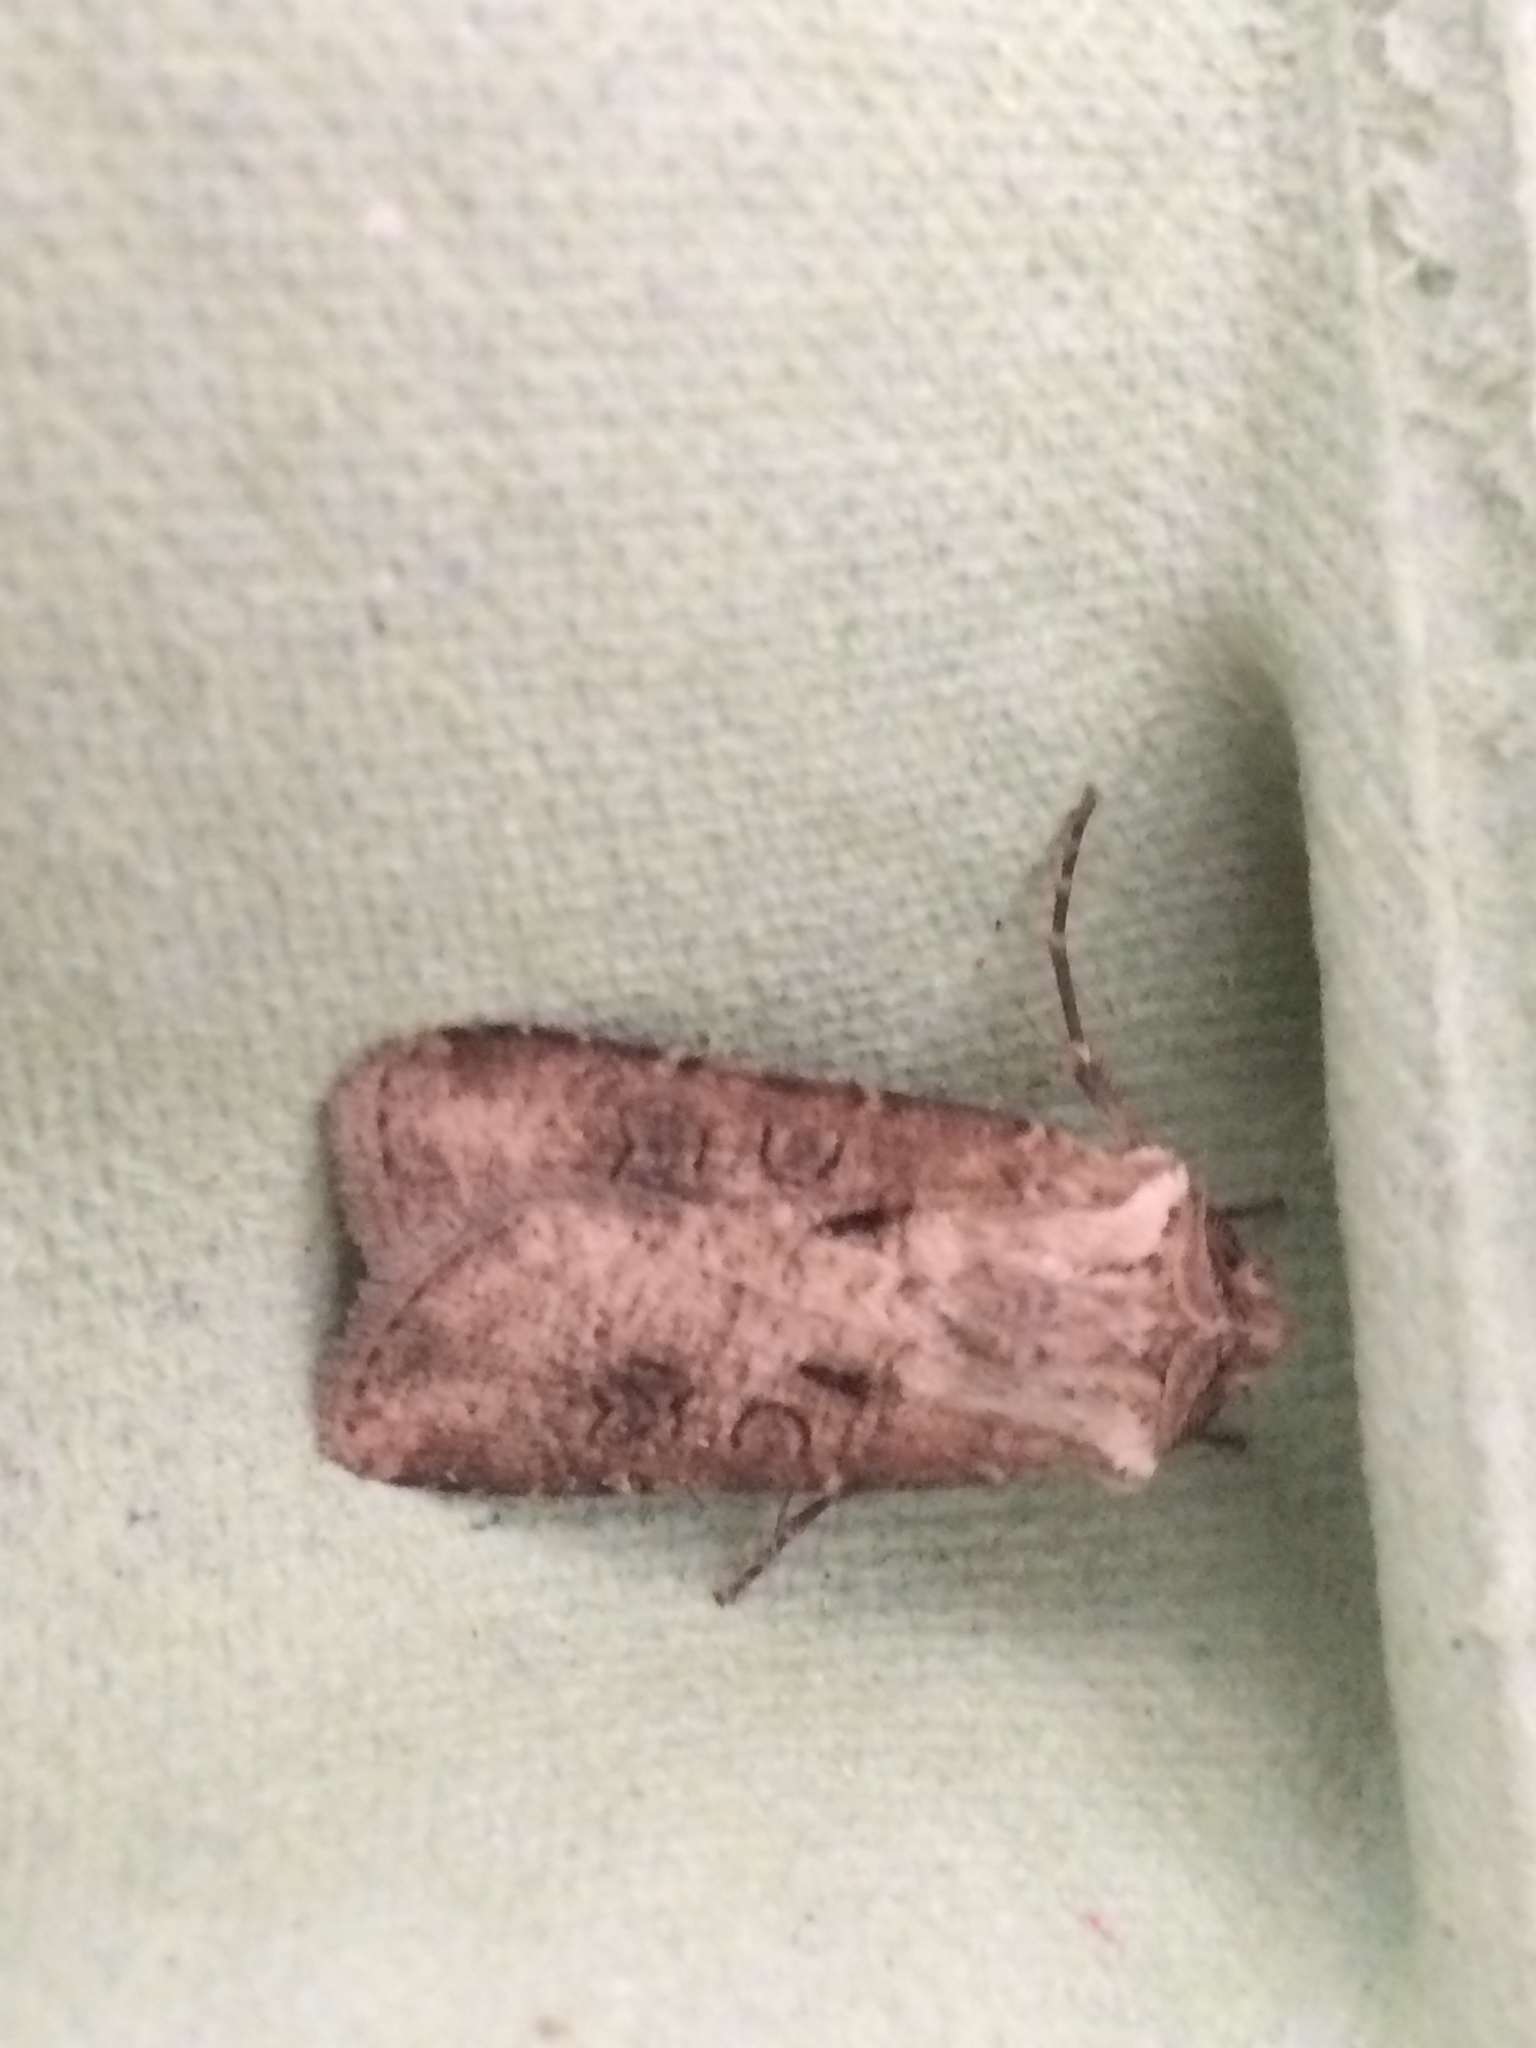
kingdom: Animalia
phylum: Arthropoda
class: Insecta
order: Lepidoptera
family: Noctuidae
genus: Agrotis
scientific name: Agrotis clavis
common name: Heart and club
